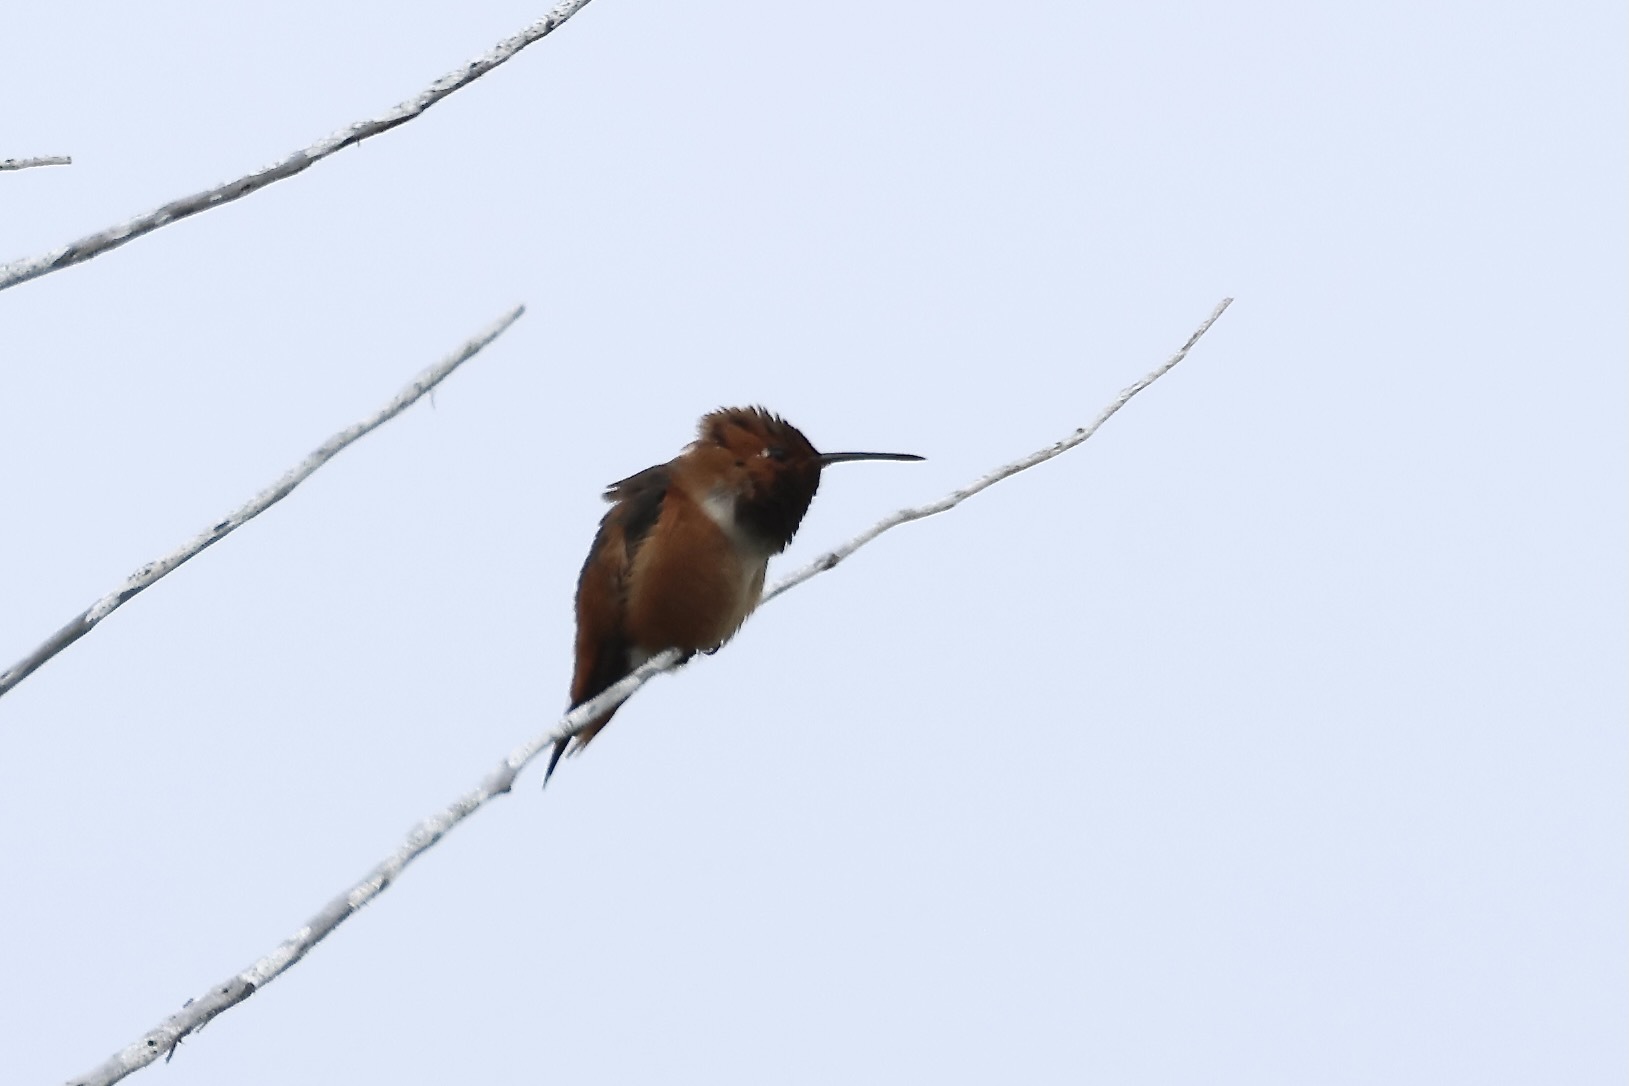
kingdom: Animalia
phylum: Chordata
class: Aves
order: Apodiformes
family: Trochilidae
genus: Selasphorus
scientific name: Selasphorus sasin
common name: Allen's hummingbird
